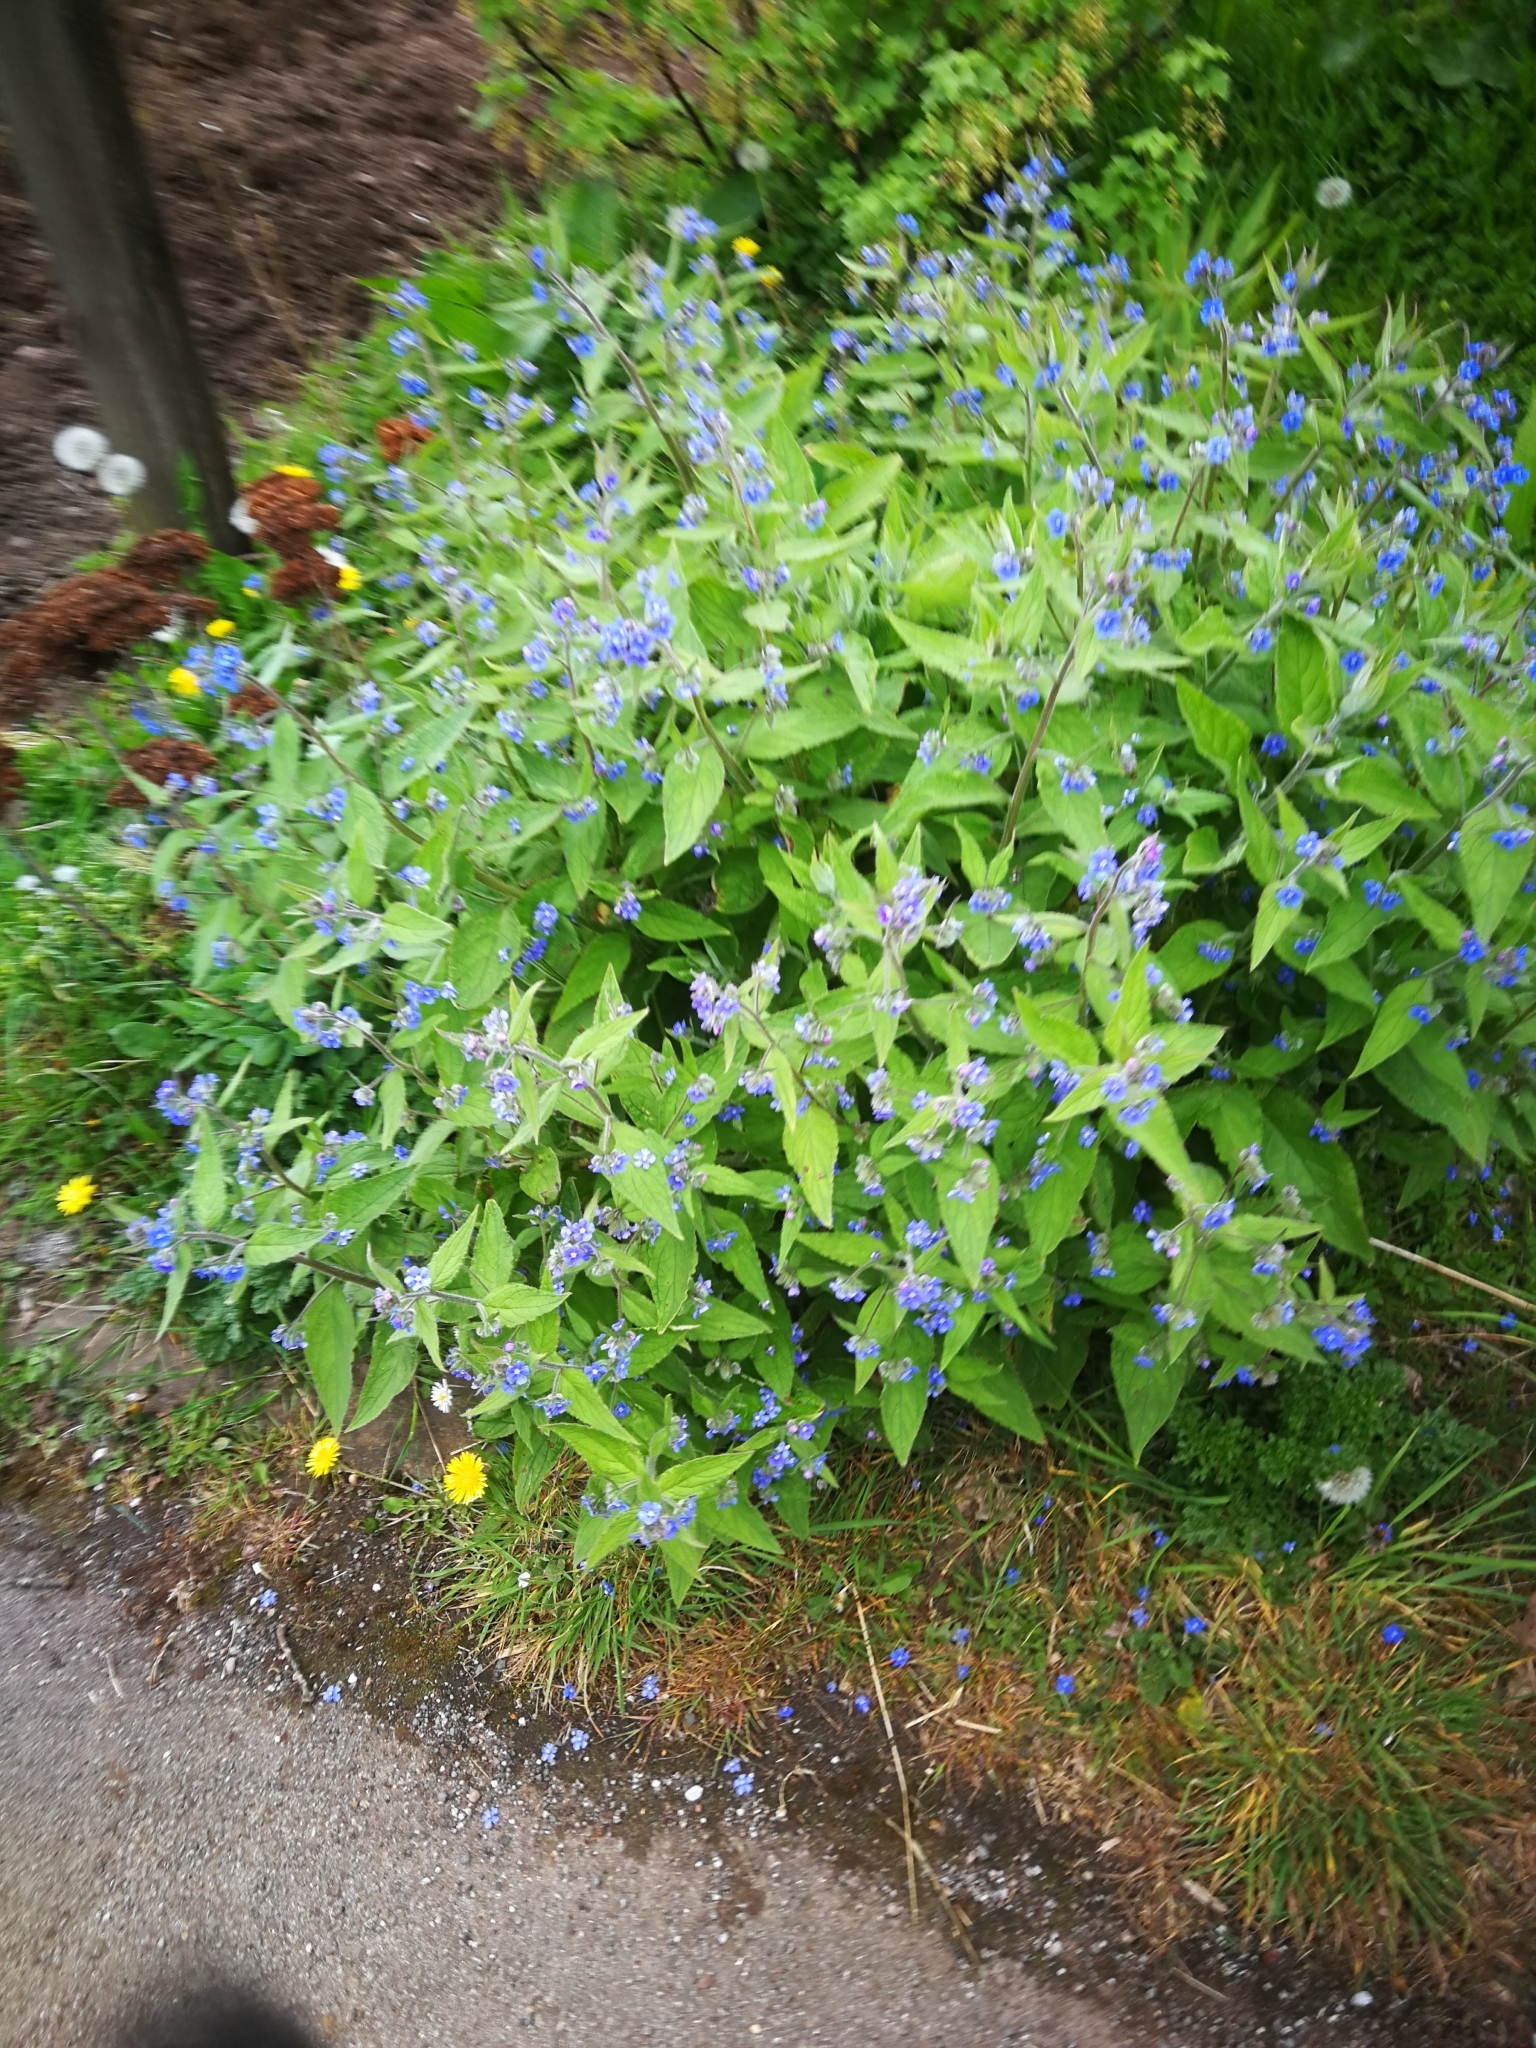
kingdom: Plantae
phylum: Tracheophyta
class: Magnoliopsida
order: Boraginales
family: Boraginaceae
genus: Pentaglottis
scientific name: Pentaglottis sempervirens
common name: Green alkanet
